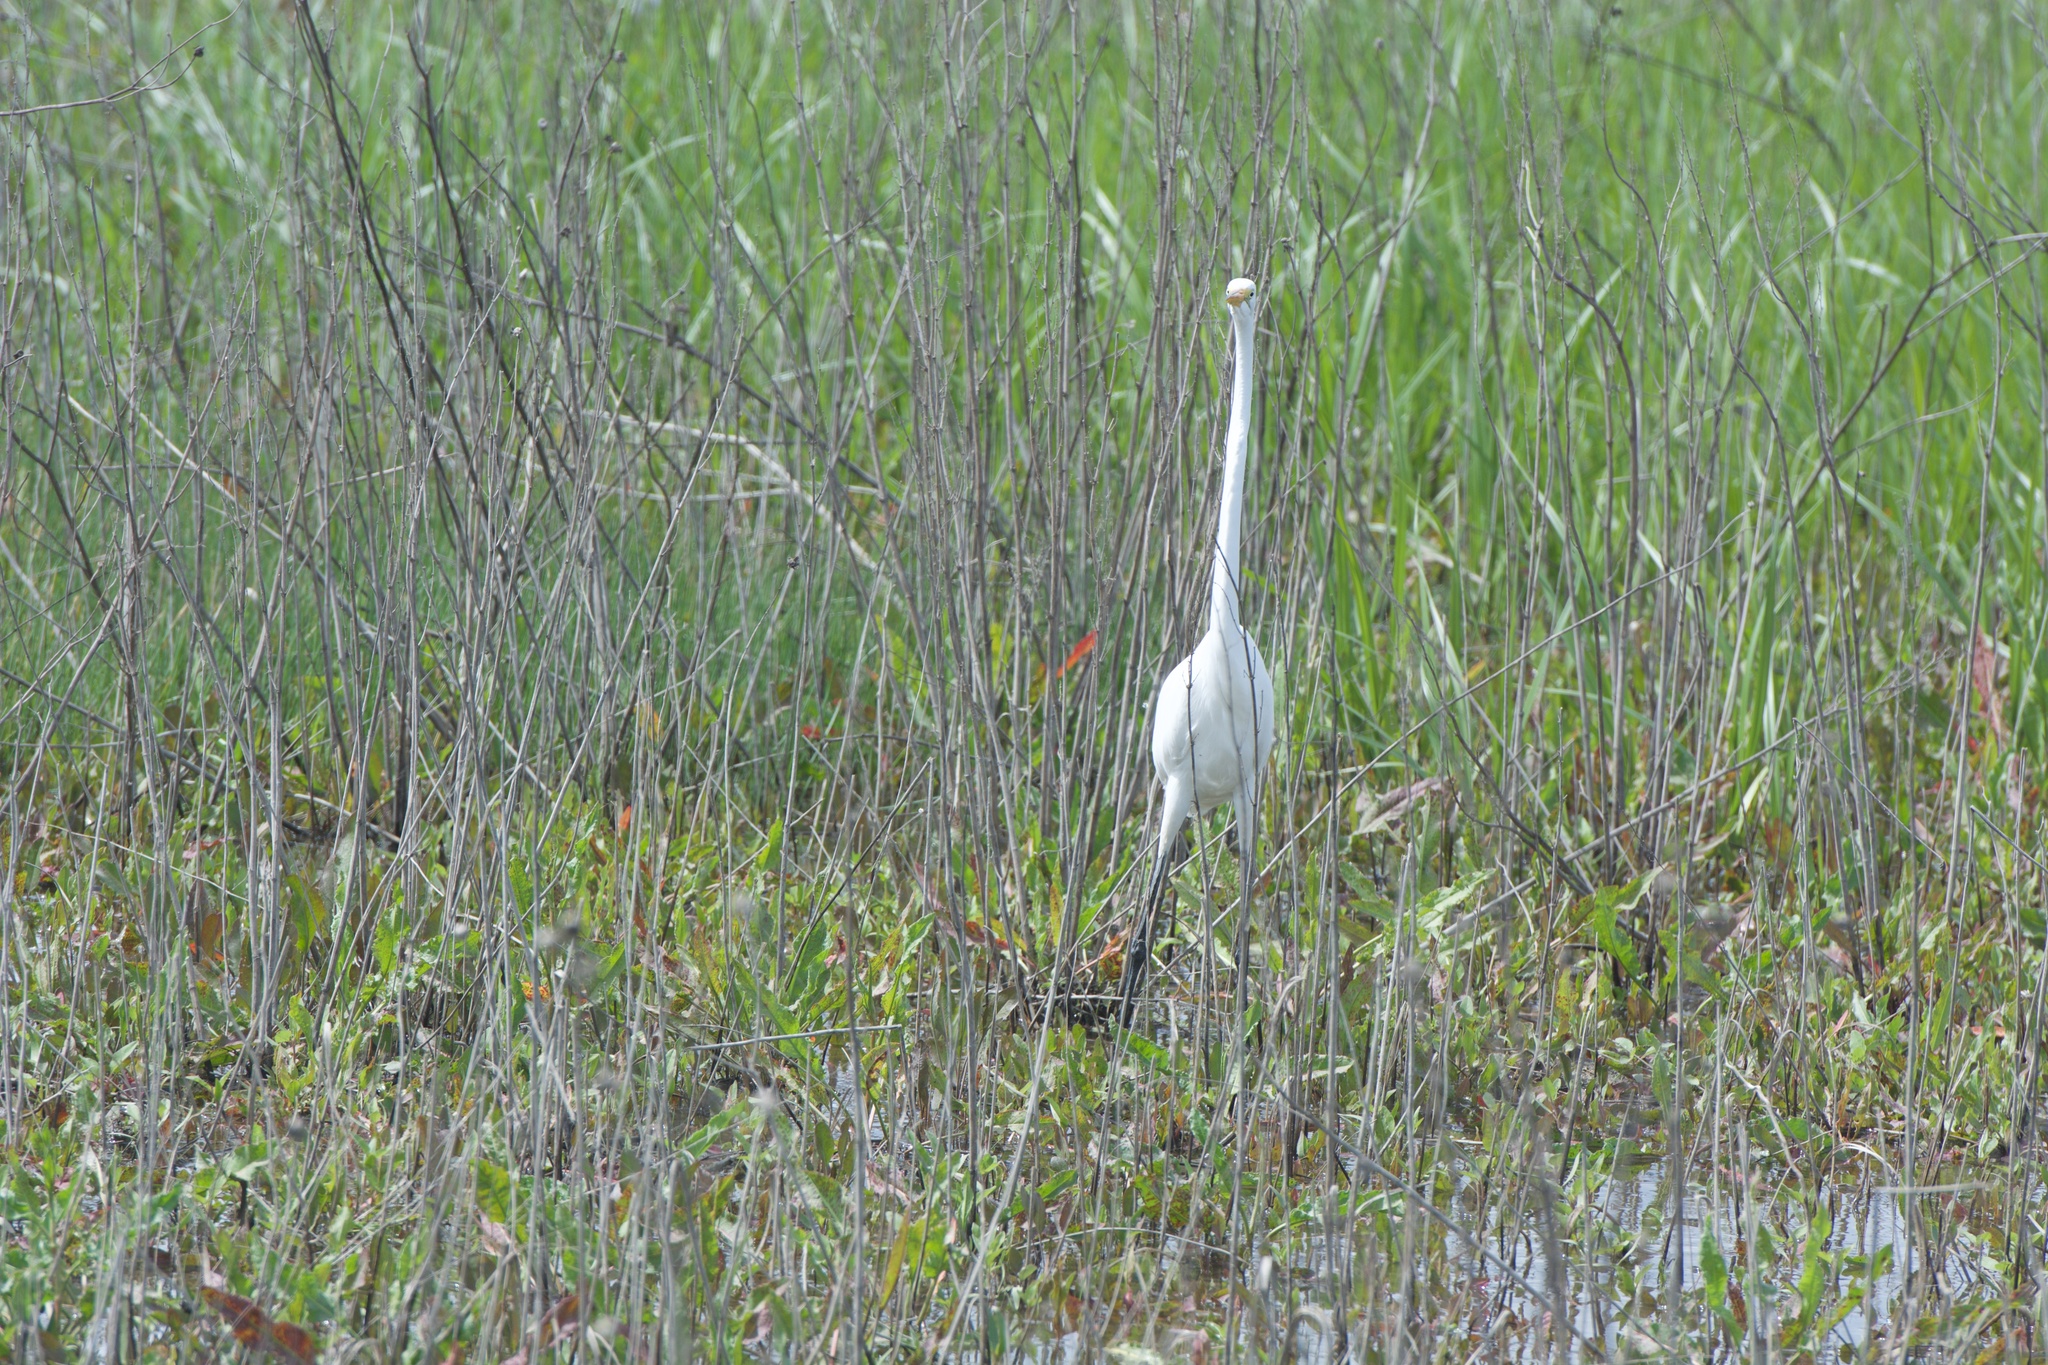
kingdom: Animalia
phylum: Chordata
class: Aves
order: Pelecaniformes
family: Ardeidae
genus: Ardea
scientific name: Ardea alba
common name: Great egret
